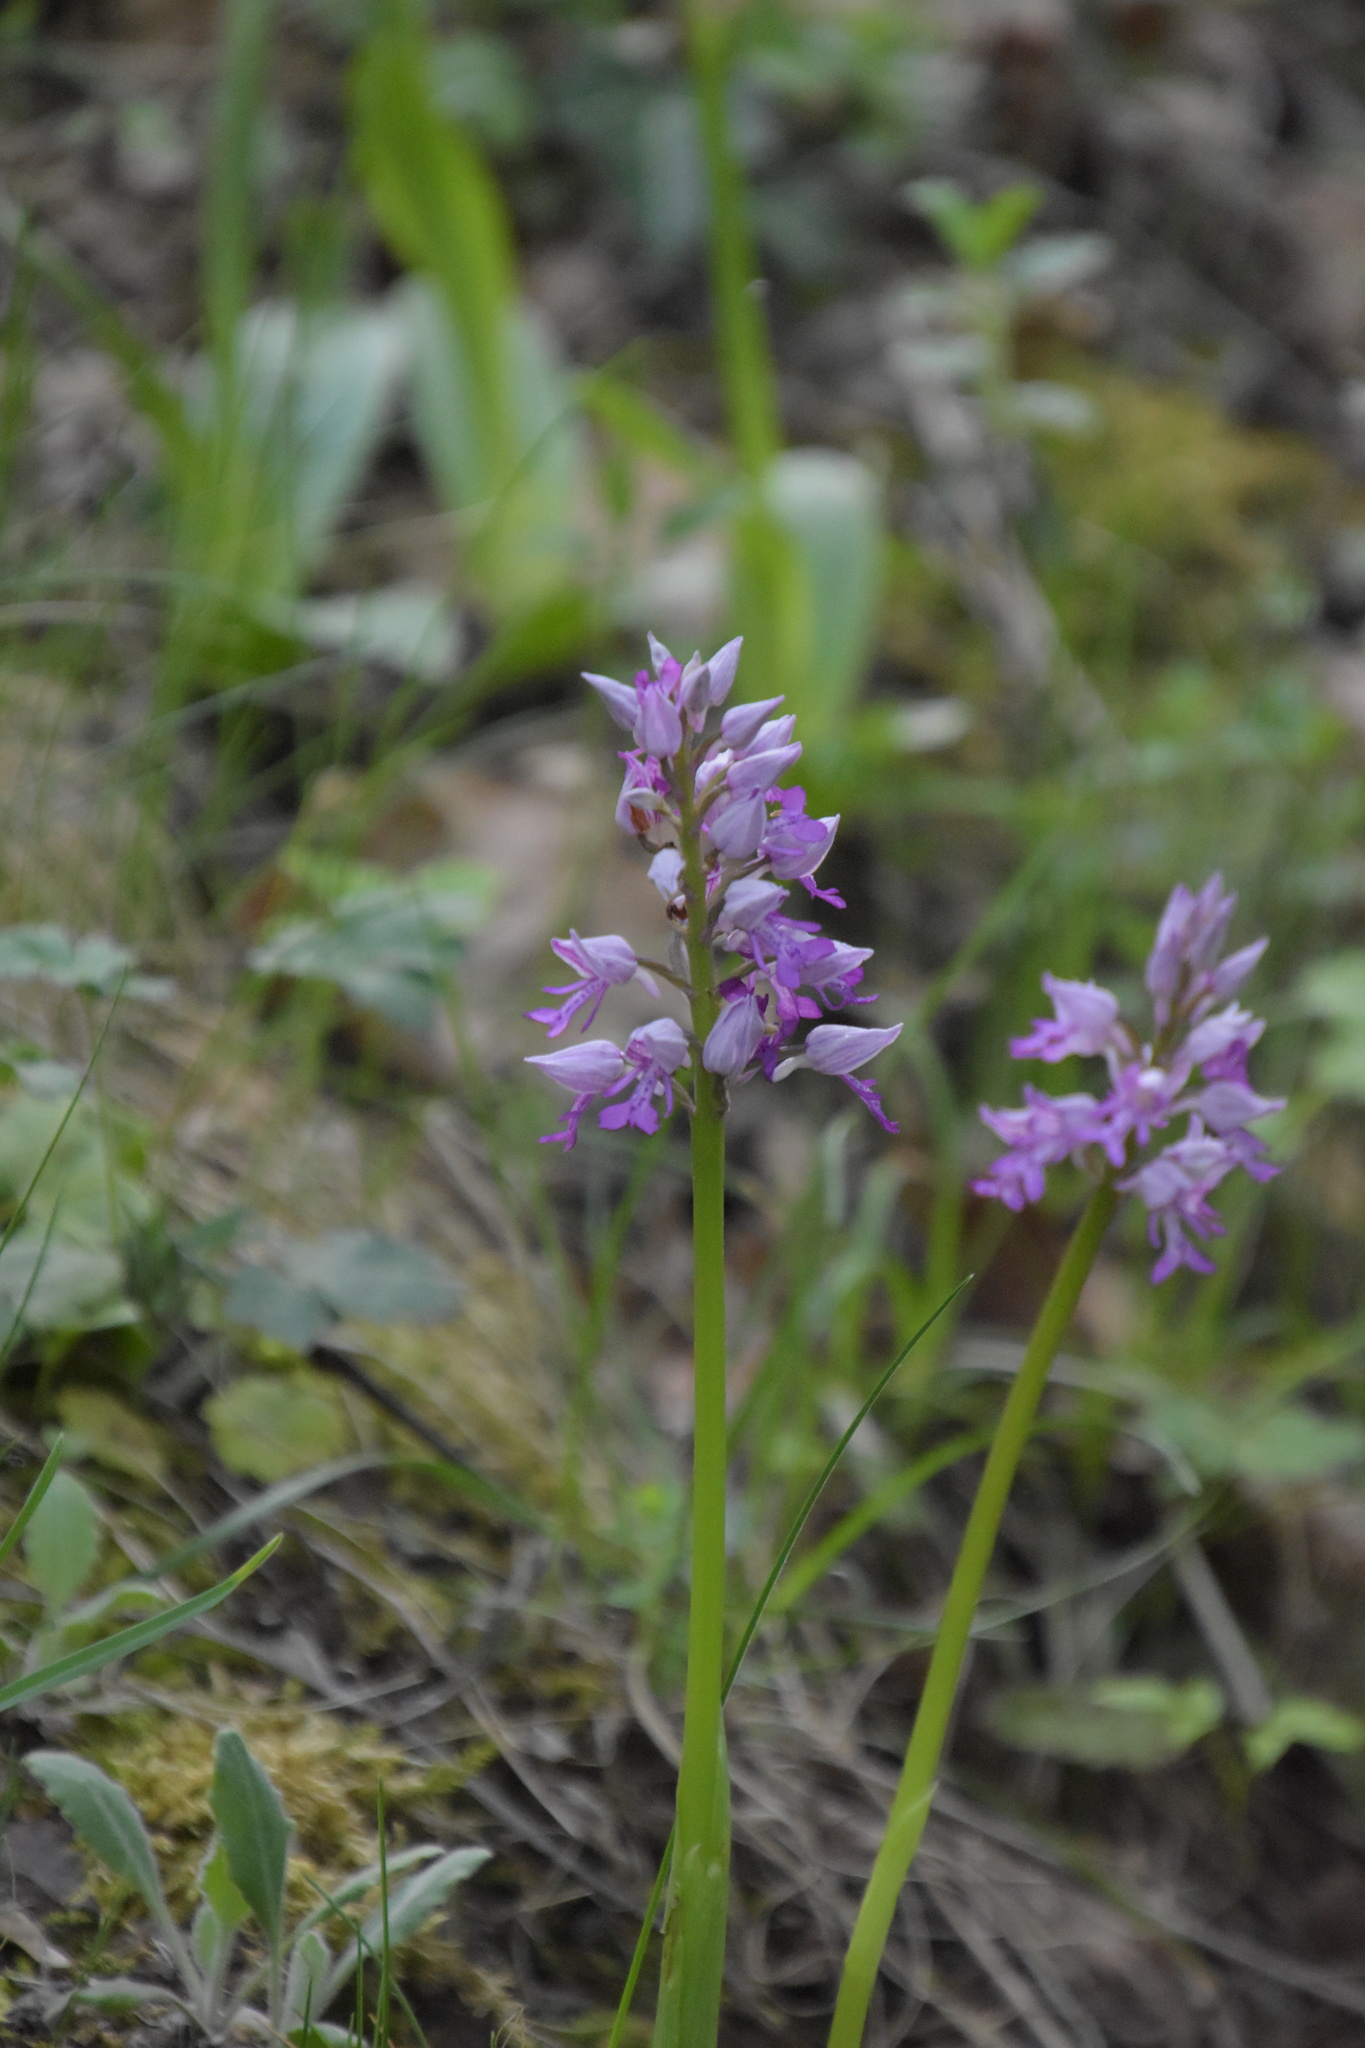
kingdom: Plantae
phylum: Tracheophyta
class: Liliopsida
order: Asparagales
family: Orchidaceae
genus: Orchis
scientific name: Orchis militaris
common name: Military orchid
